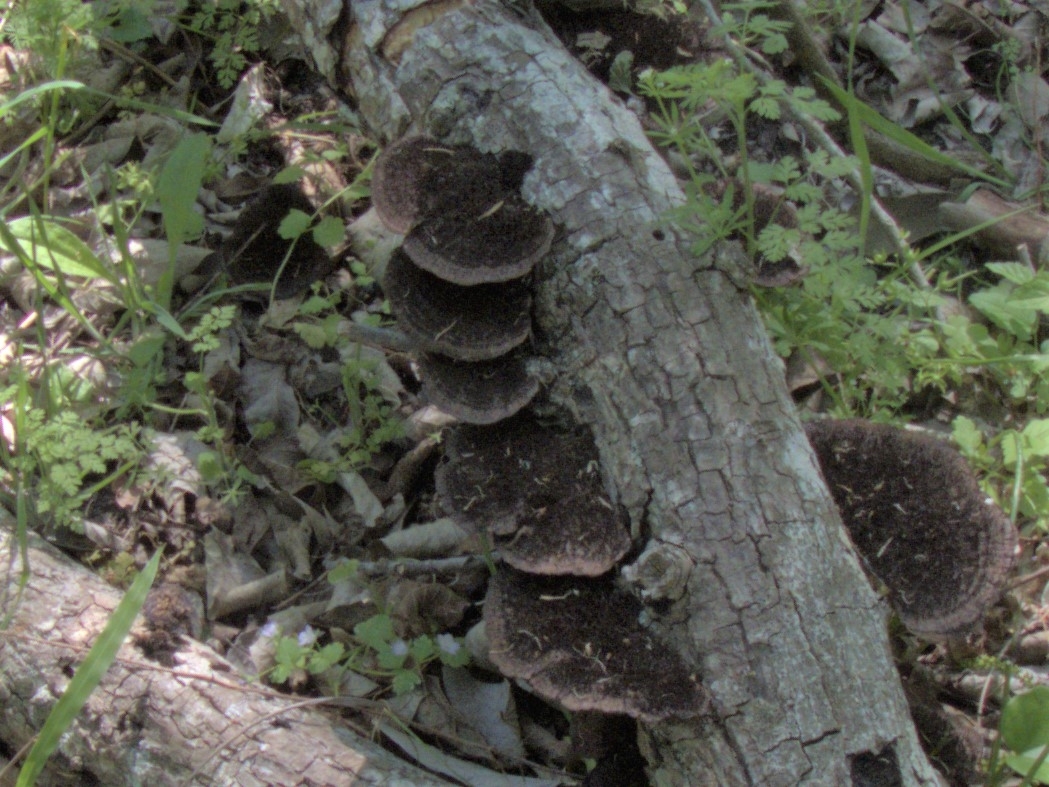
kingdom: Fungi
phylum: Basidiomycota
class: Agaricomycetes
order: Polyporales
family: Cerrenaceae
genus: Cerrena
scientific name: Cerrena hydnoides
